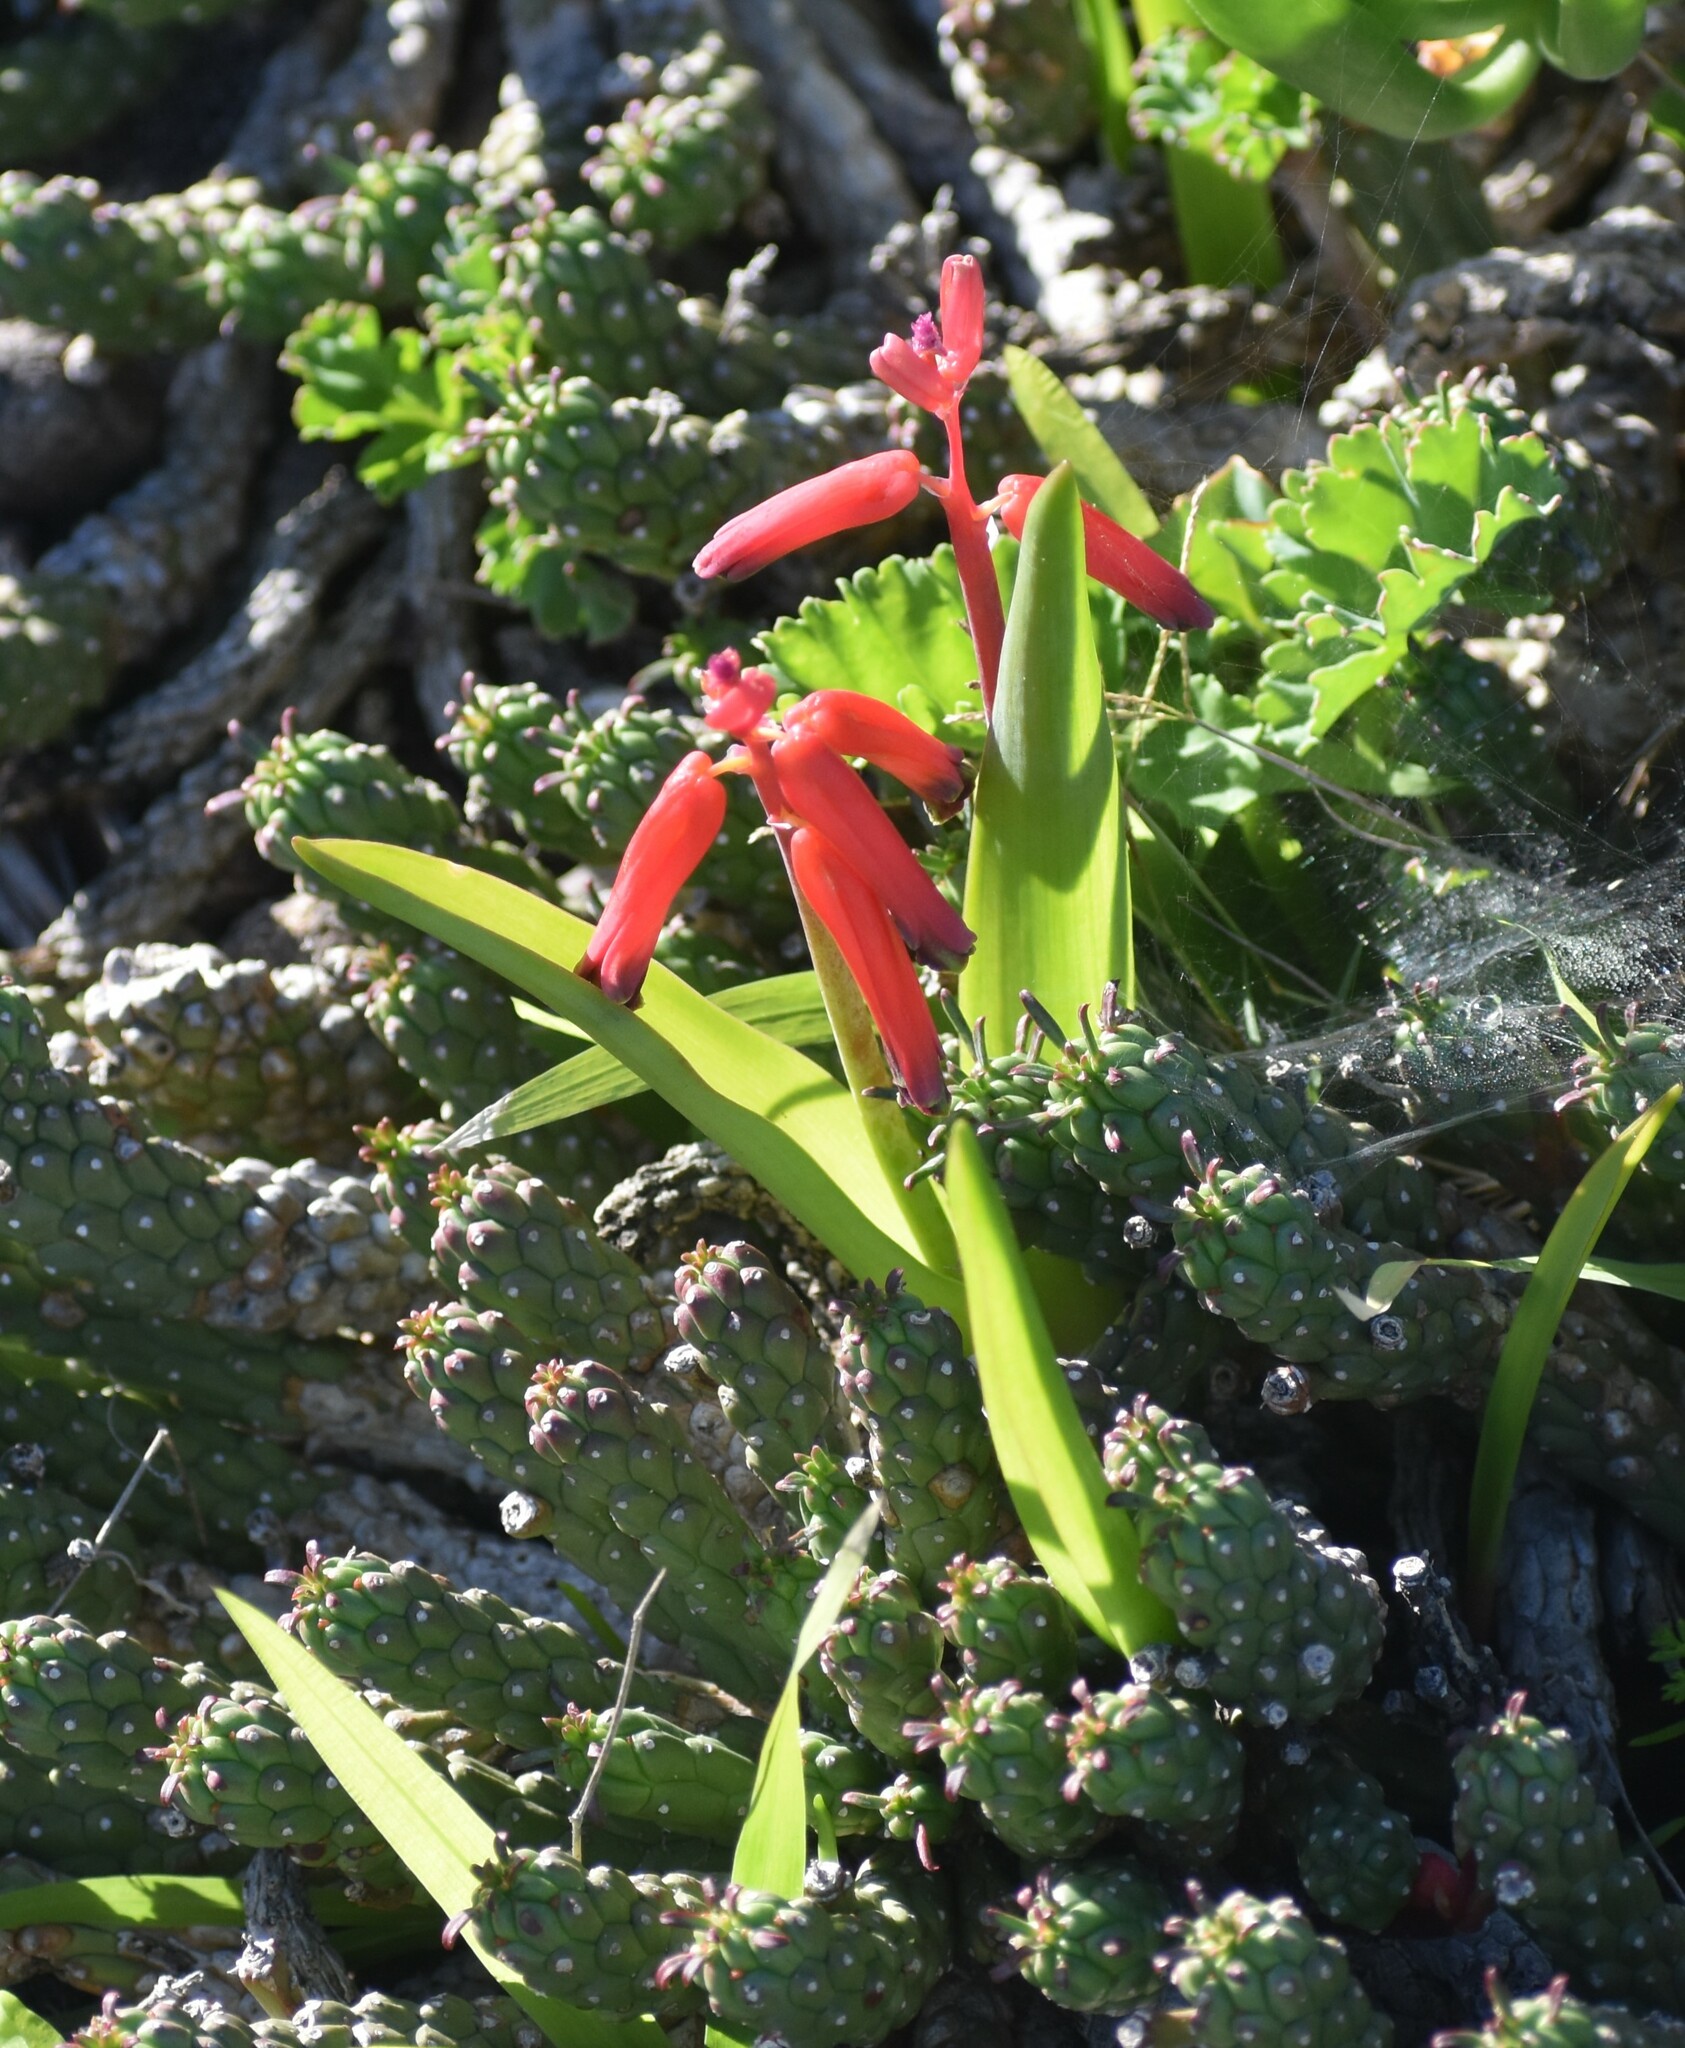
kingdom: Plantae
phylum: Tracheophyta
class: Liliopsida
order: Asparagales
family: Asparagaceae
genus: Lachenalia
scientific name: Lachenalia bulbifera
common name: Red lachenalia
